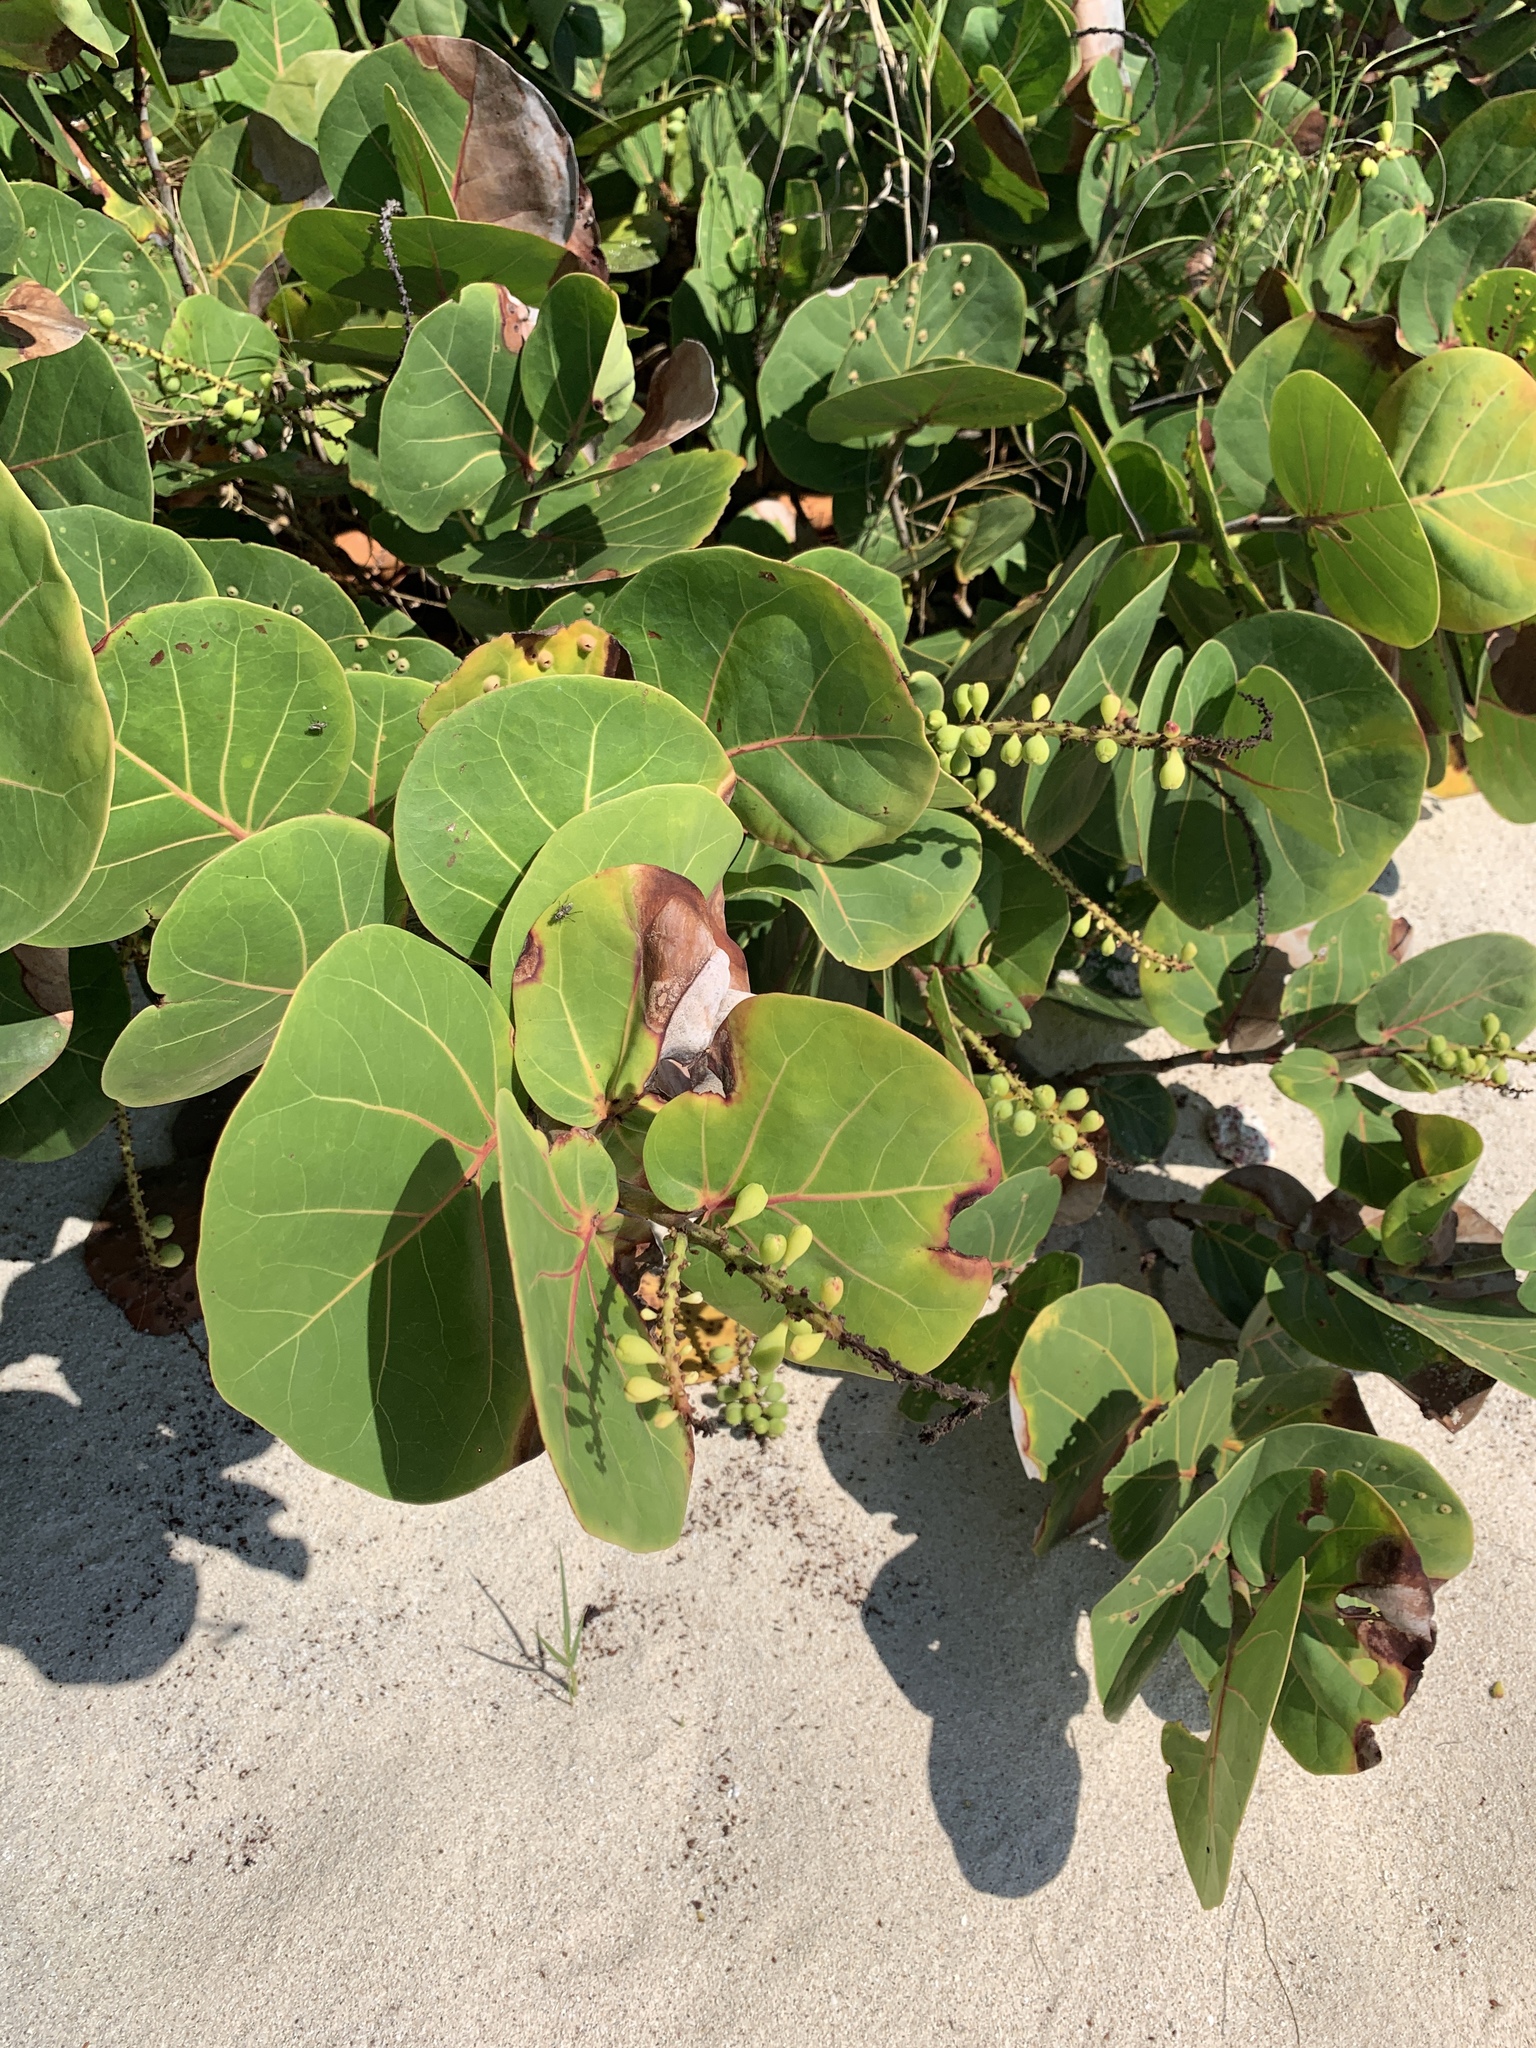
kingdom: Plantae
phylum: Tracheophyta
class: Magnoliopsida
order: Caryophyllales
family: Polygonaceae
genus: Coccoloba
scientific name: Coccoloba uvifera
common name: Seagrape
